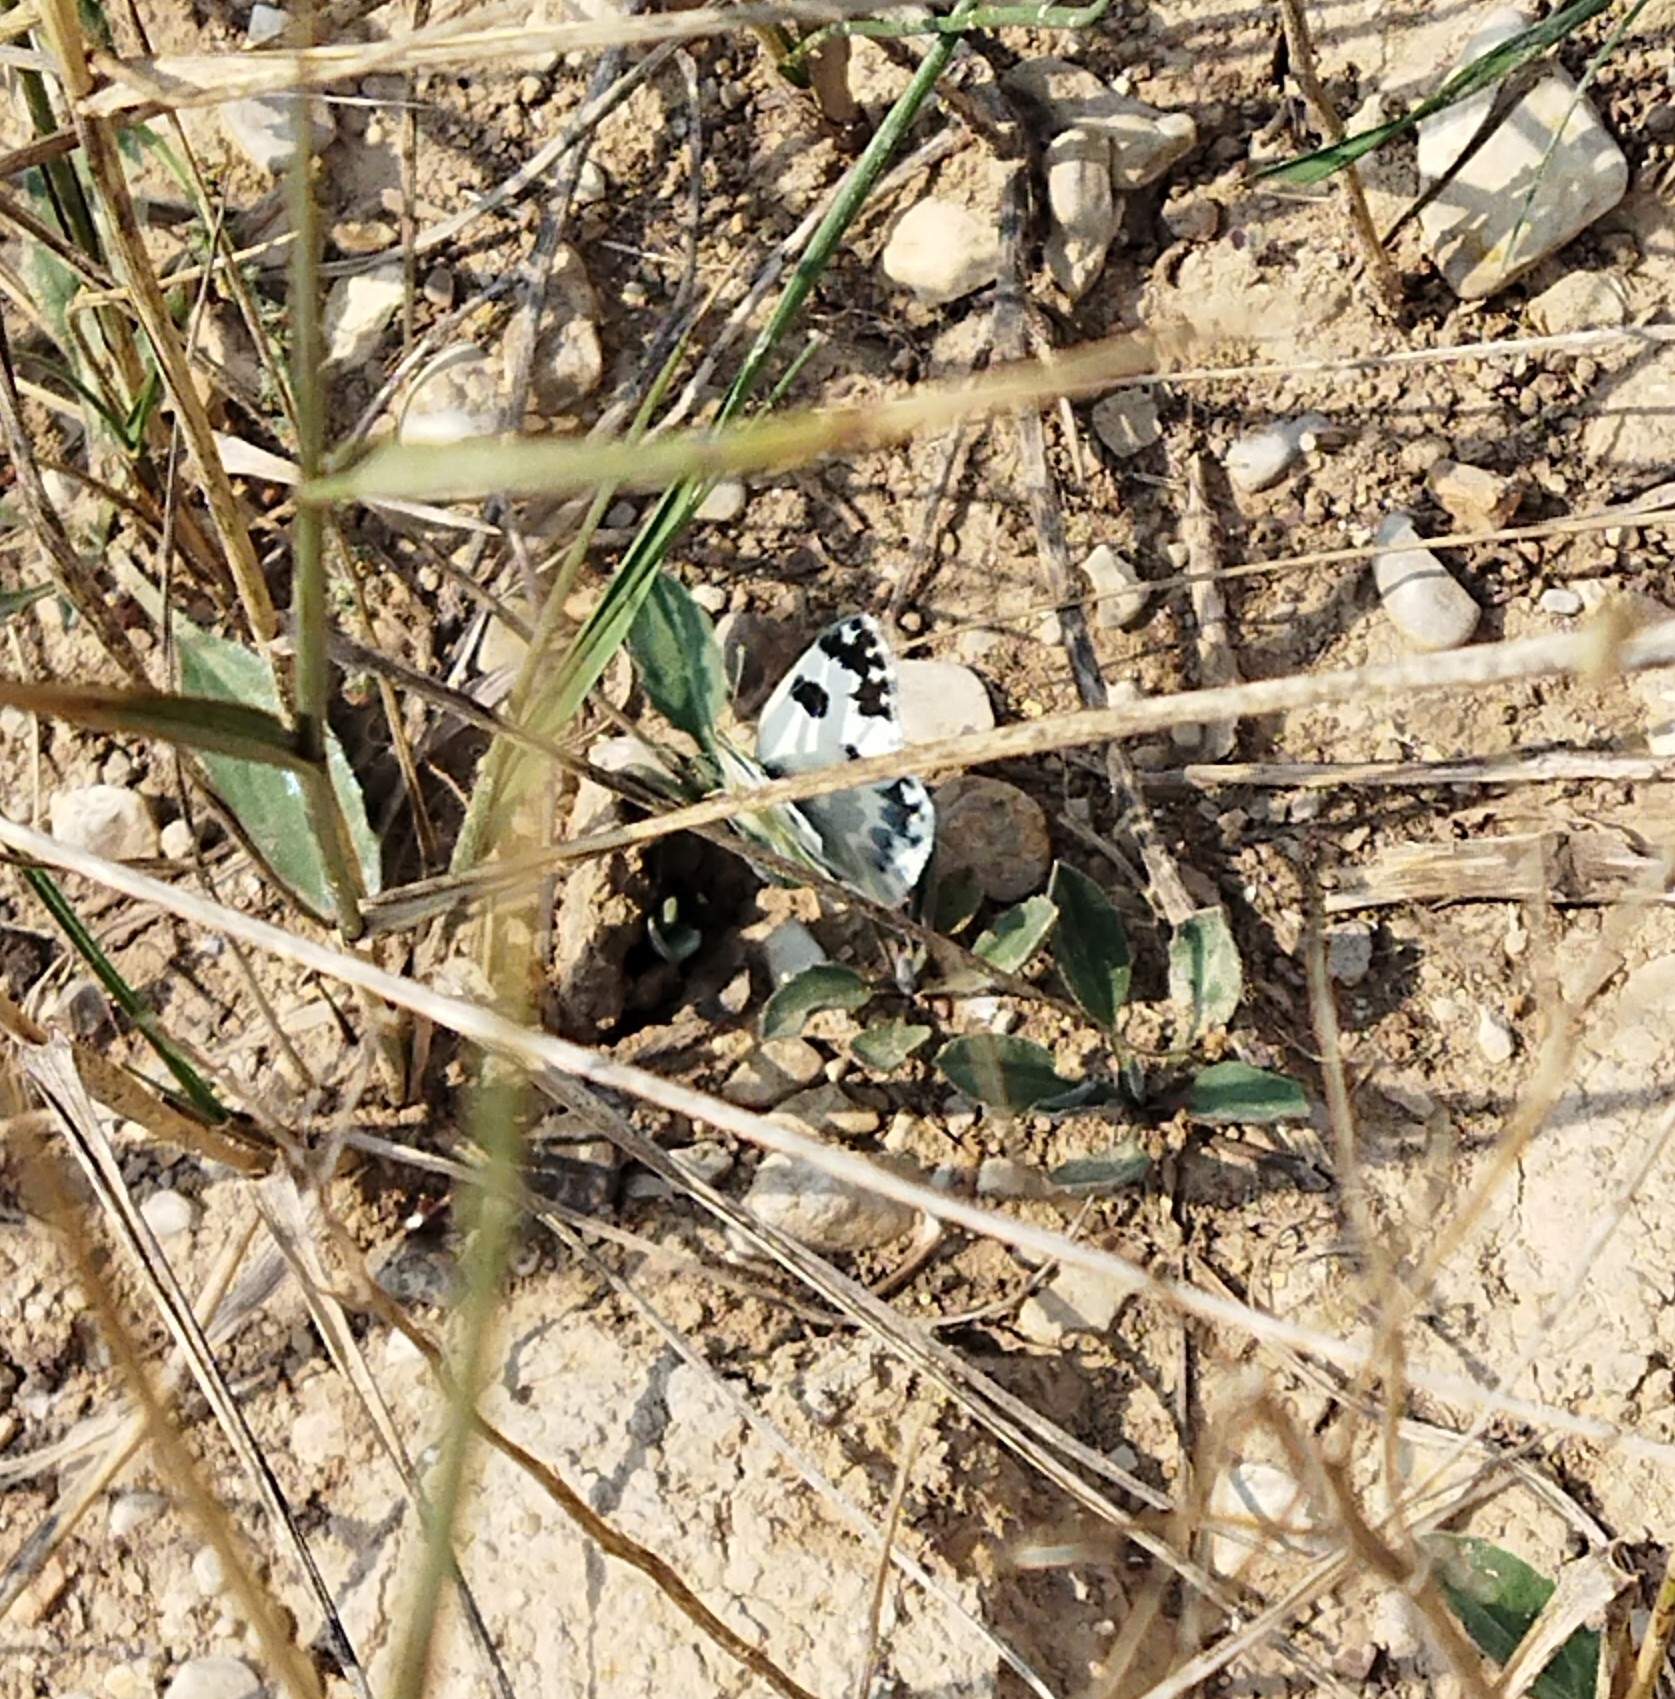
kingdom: Animalia
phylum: Arthropoda
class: Insecta
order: Lepidoptera
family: Pieridae
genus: Pontia
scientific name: Pontia daplidice
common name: Bath white
